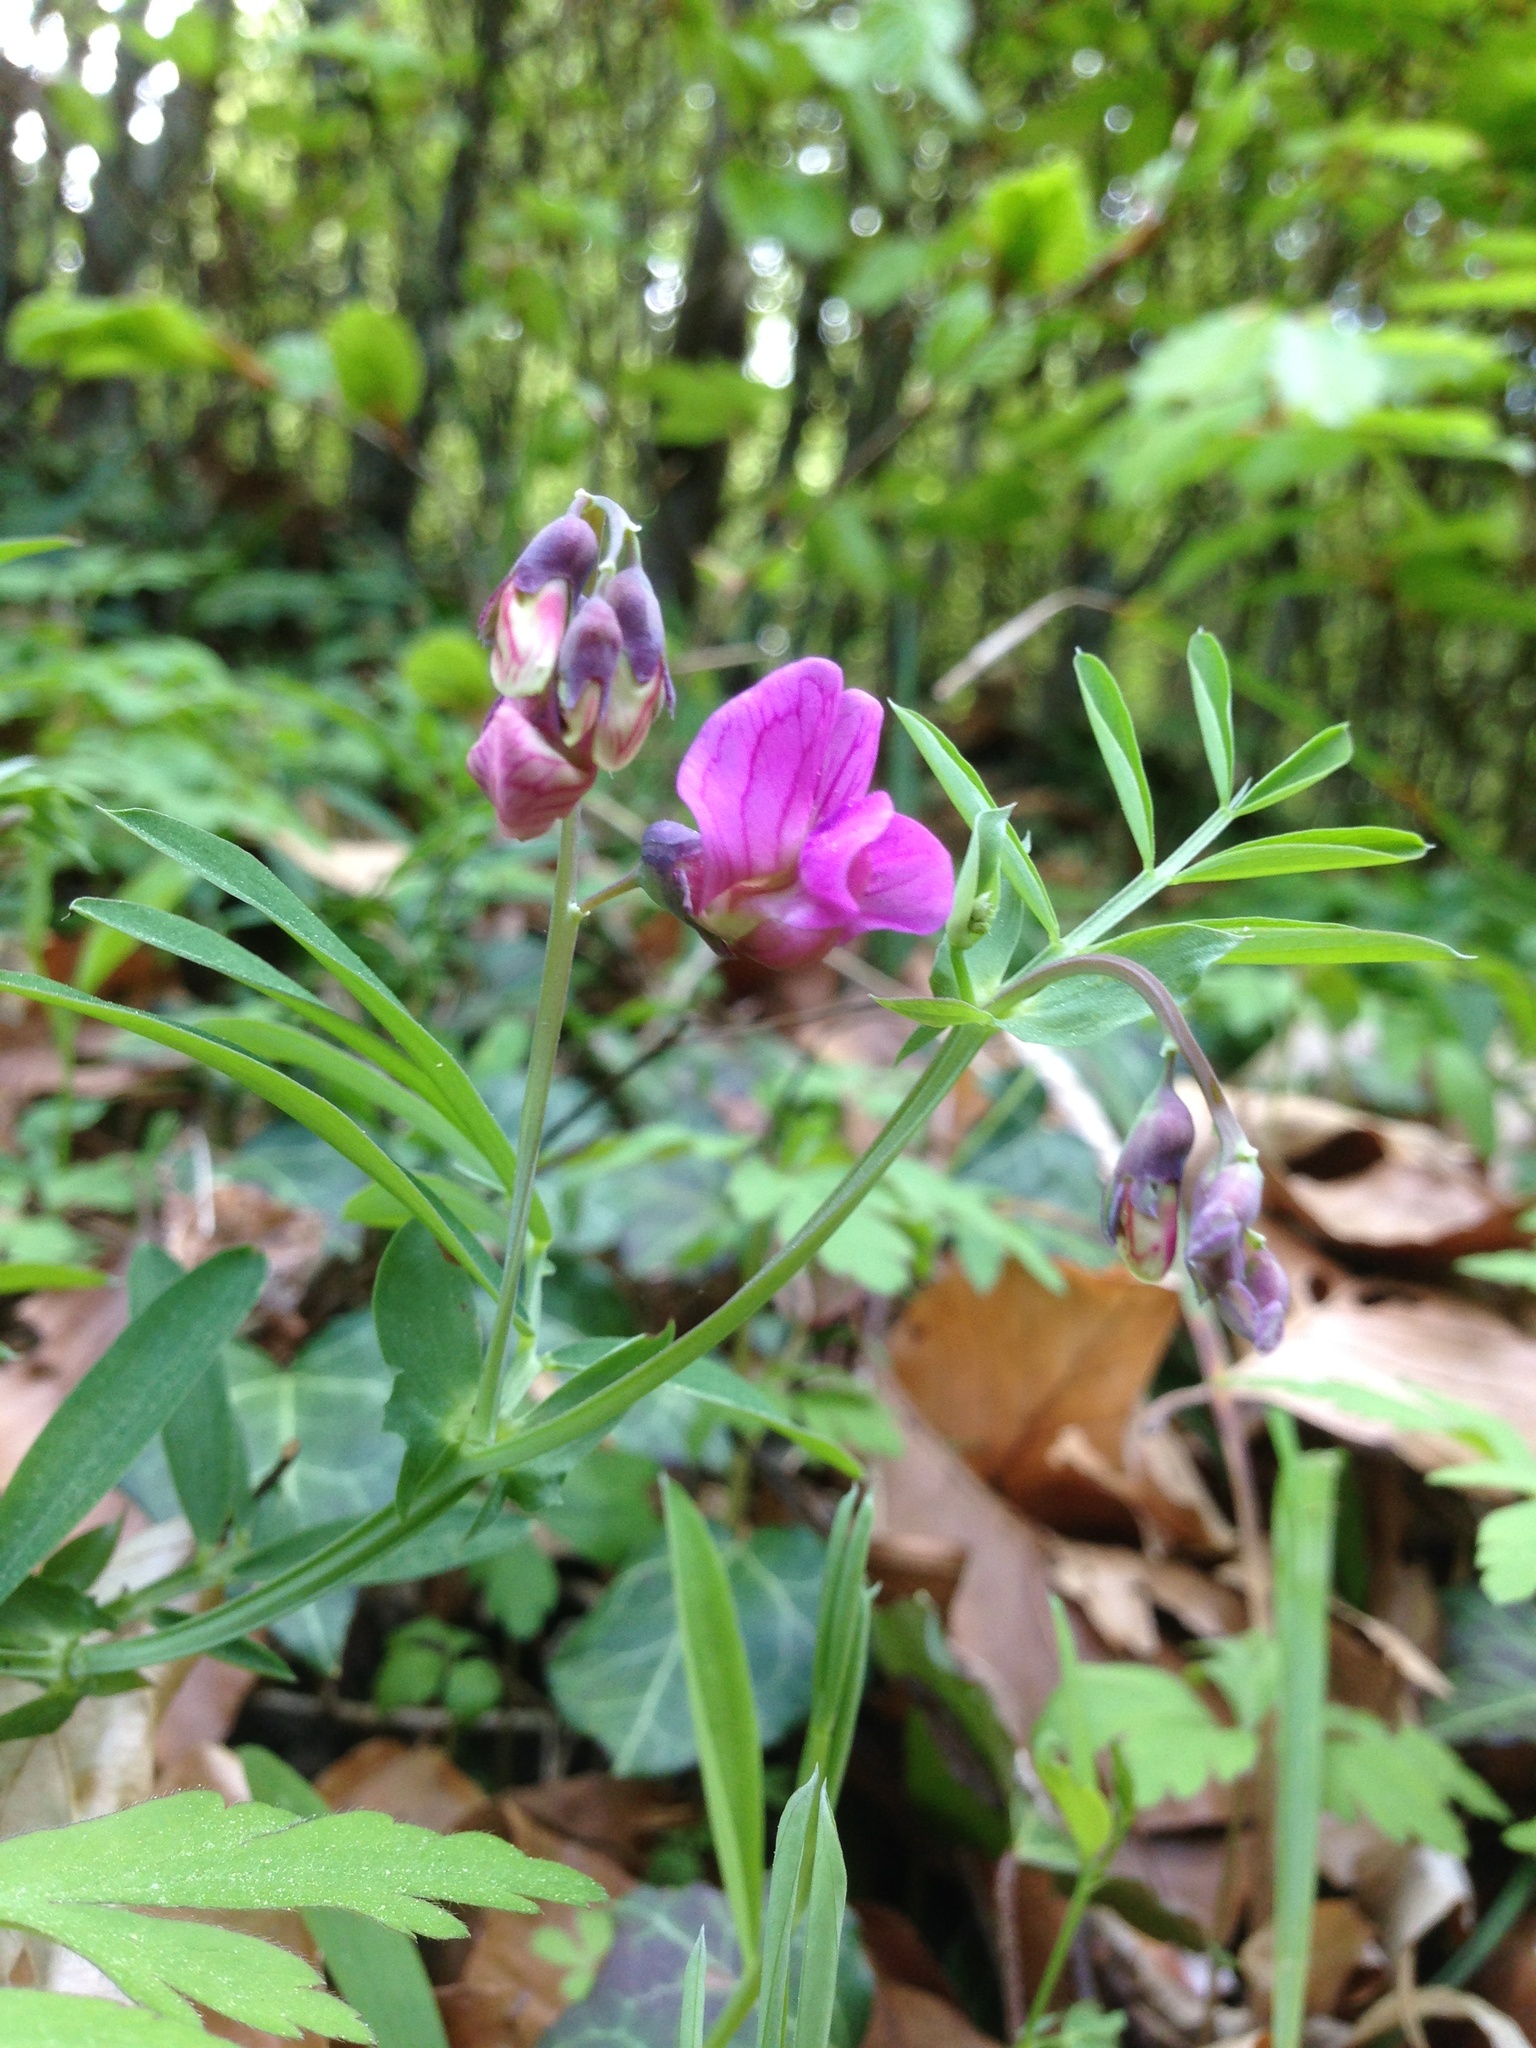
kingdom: Plantae
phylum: Tracheophyta
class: Magnoliopsida
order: Fabales
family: Fabaceae
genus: Lathyrus
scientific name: Lathyrus linifolius
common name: Bitter-vetch
